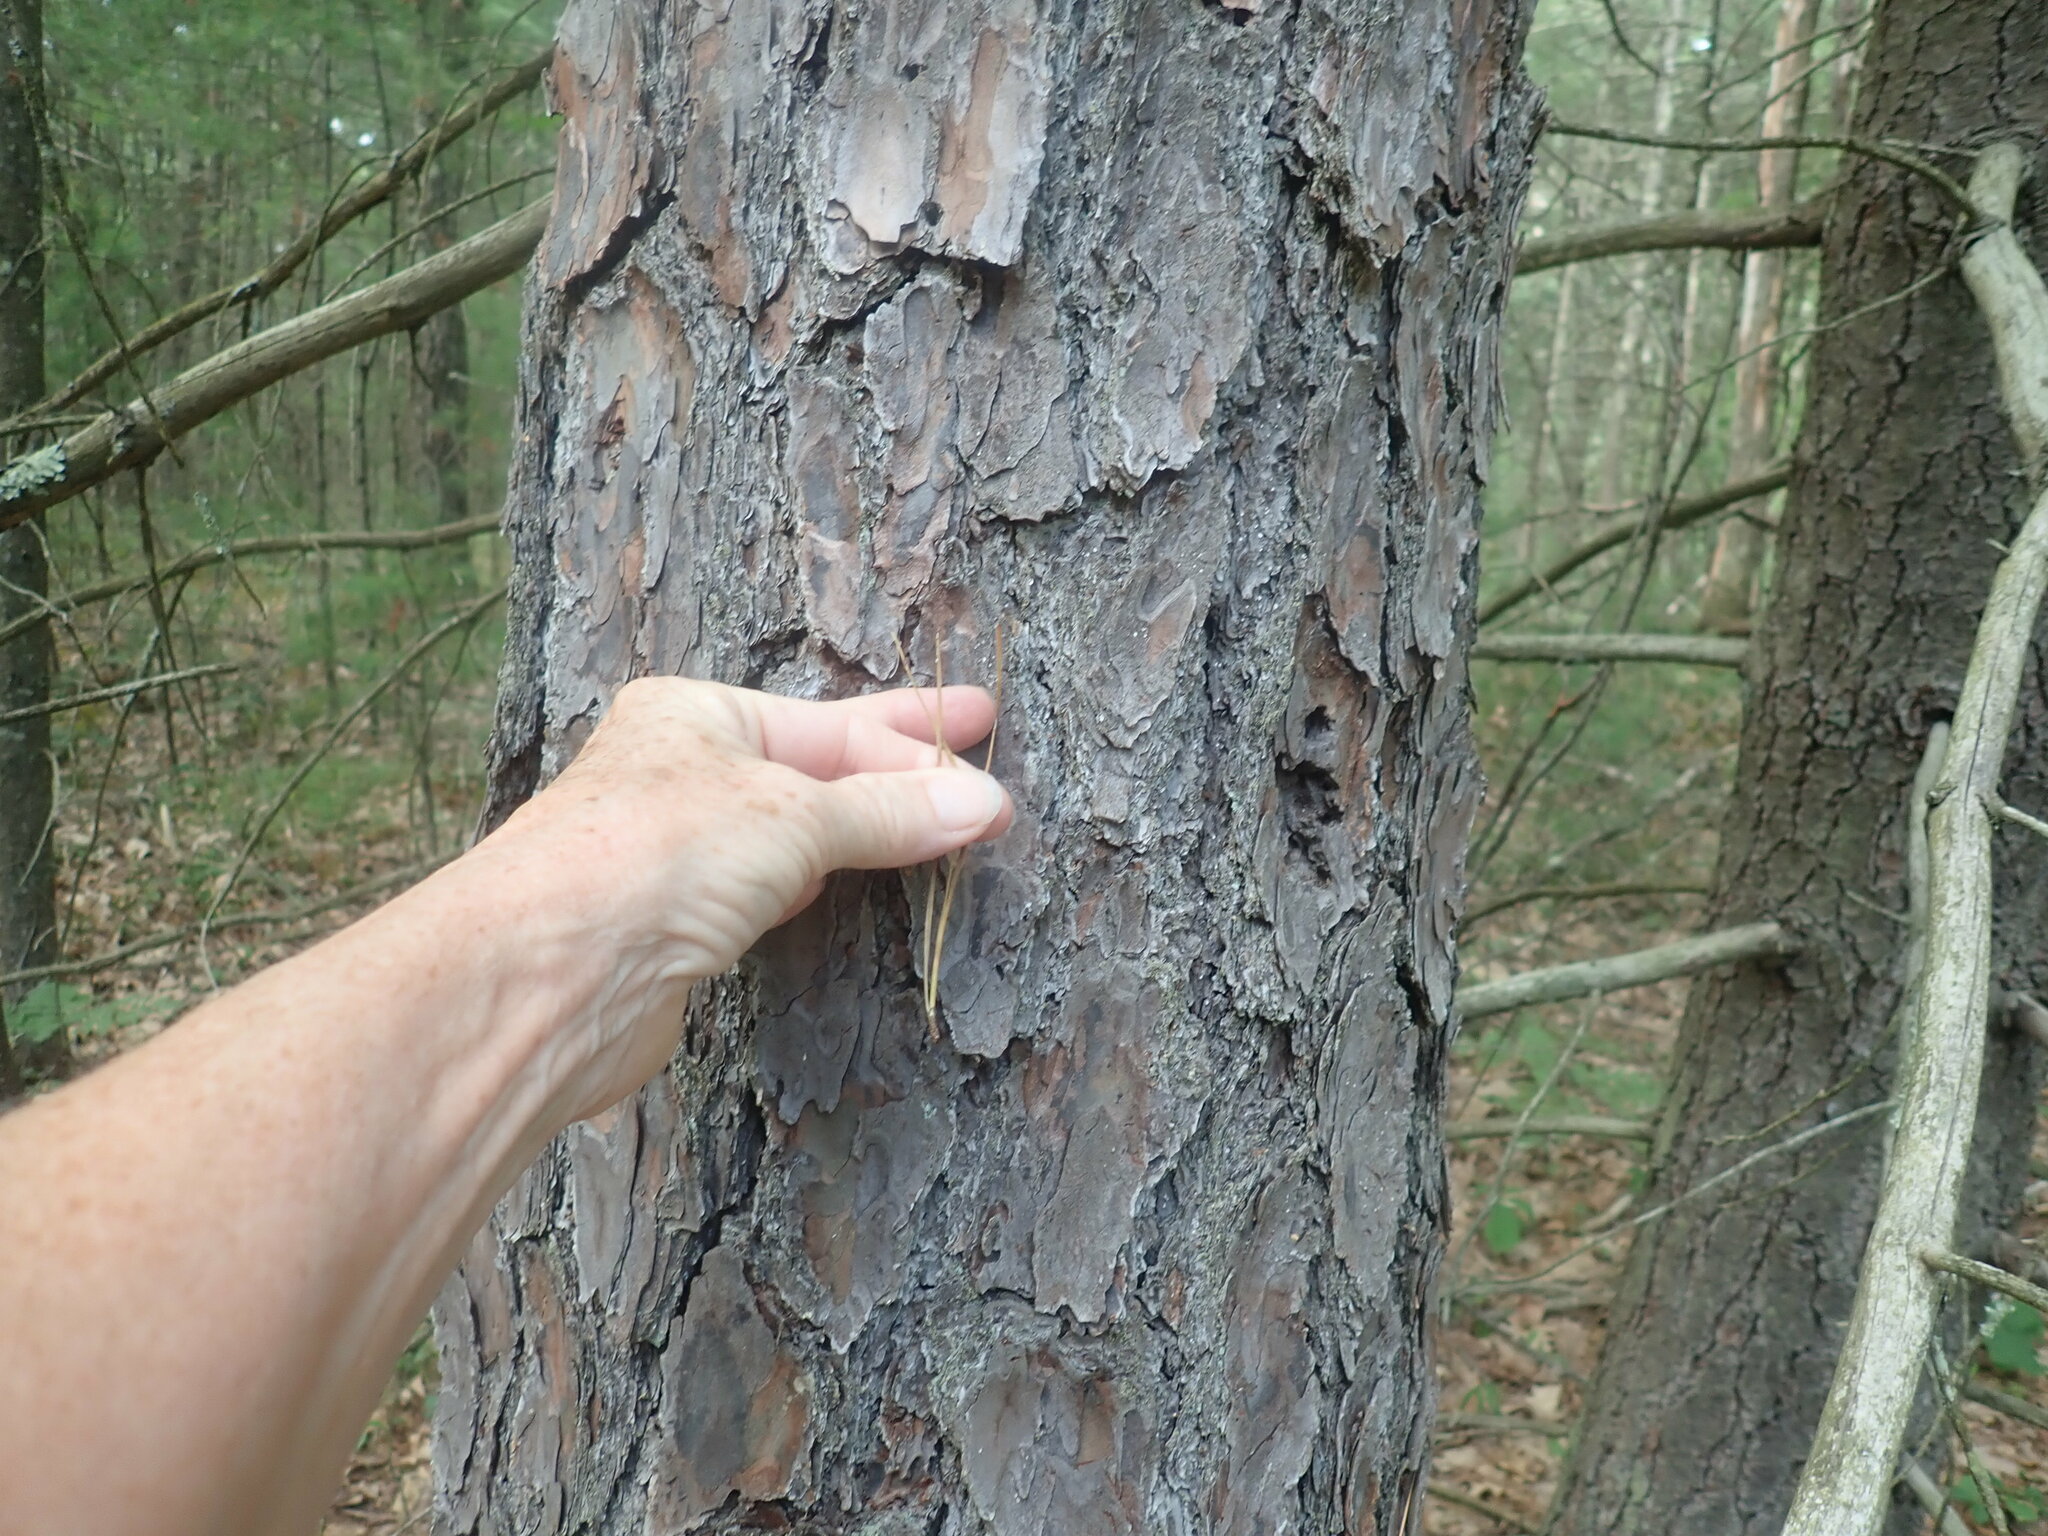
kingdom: Plantae
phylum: Tracheophyta
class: Pinopsida
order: Pinales
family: Pinaceae
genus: Pinus
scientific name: Pinus rigida
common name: Pitch pine
